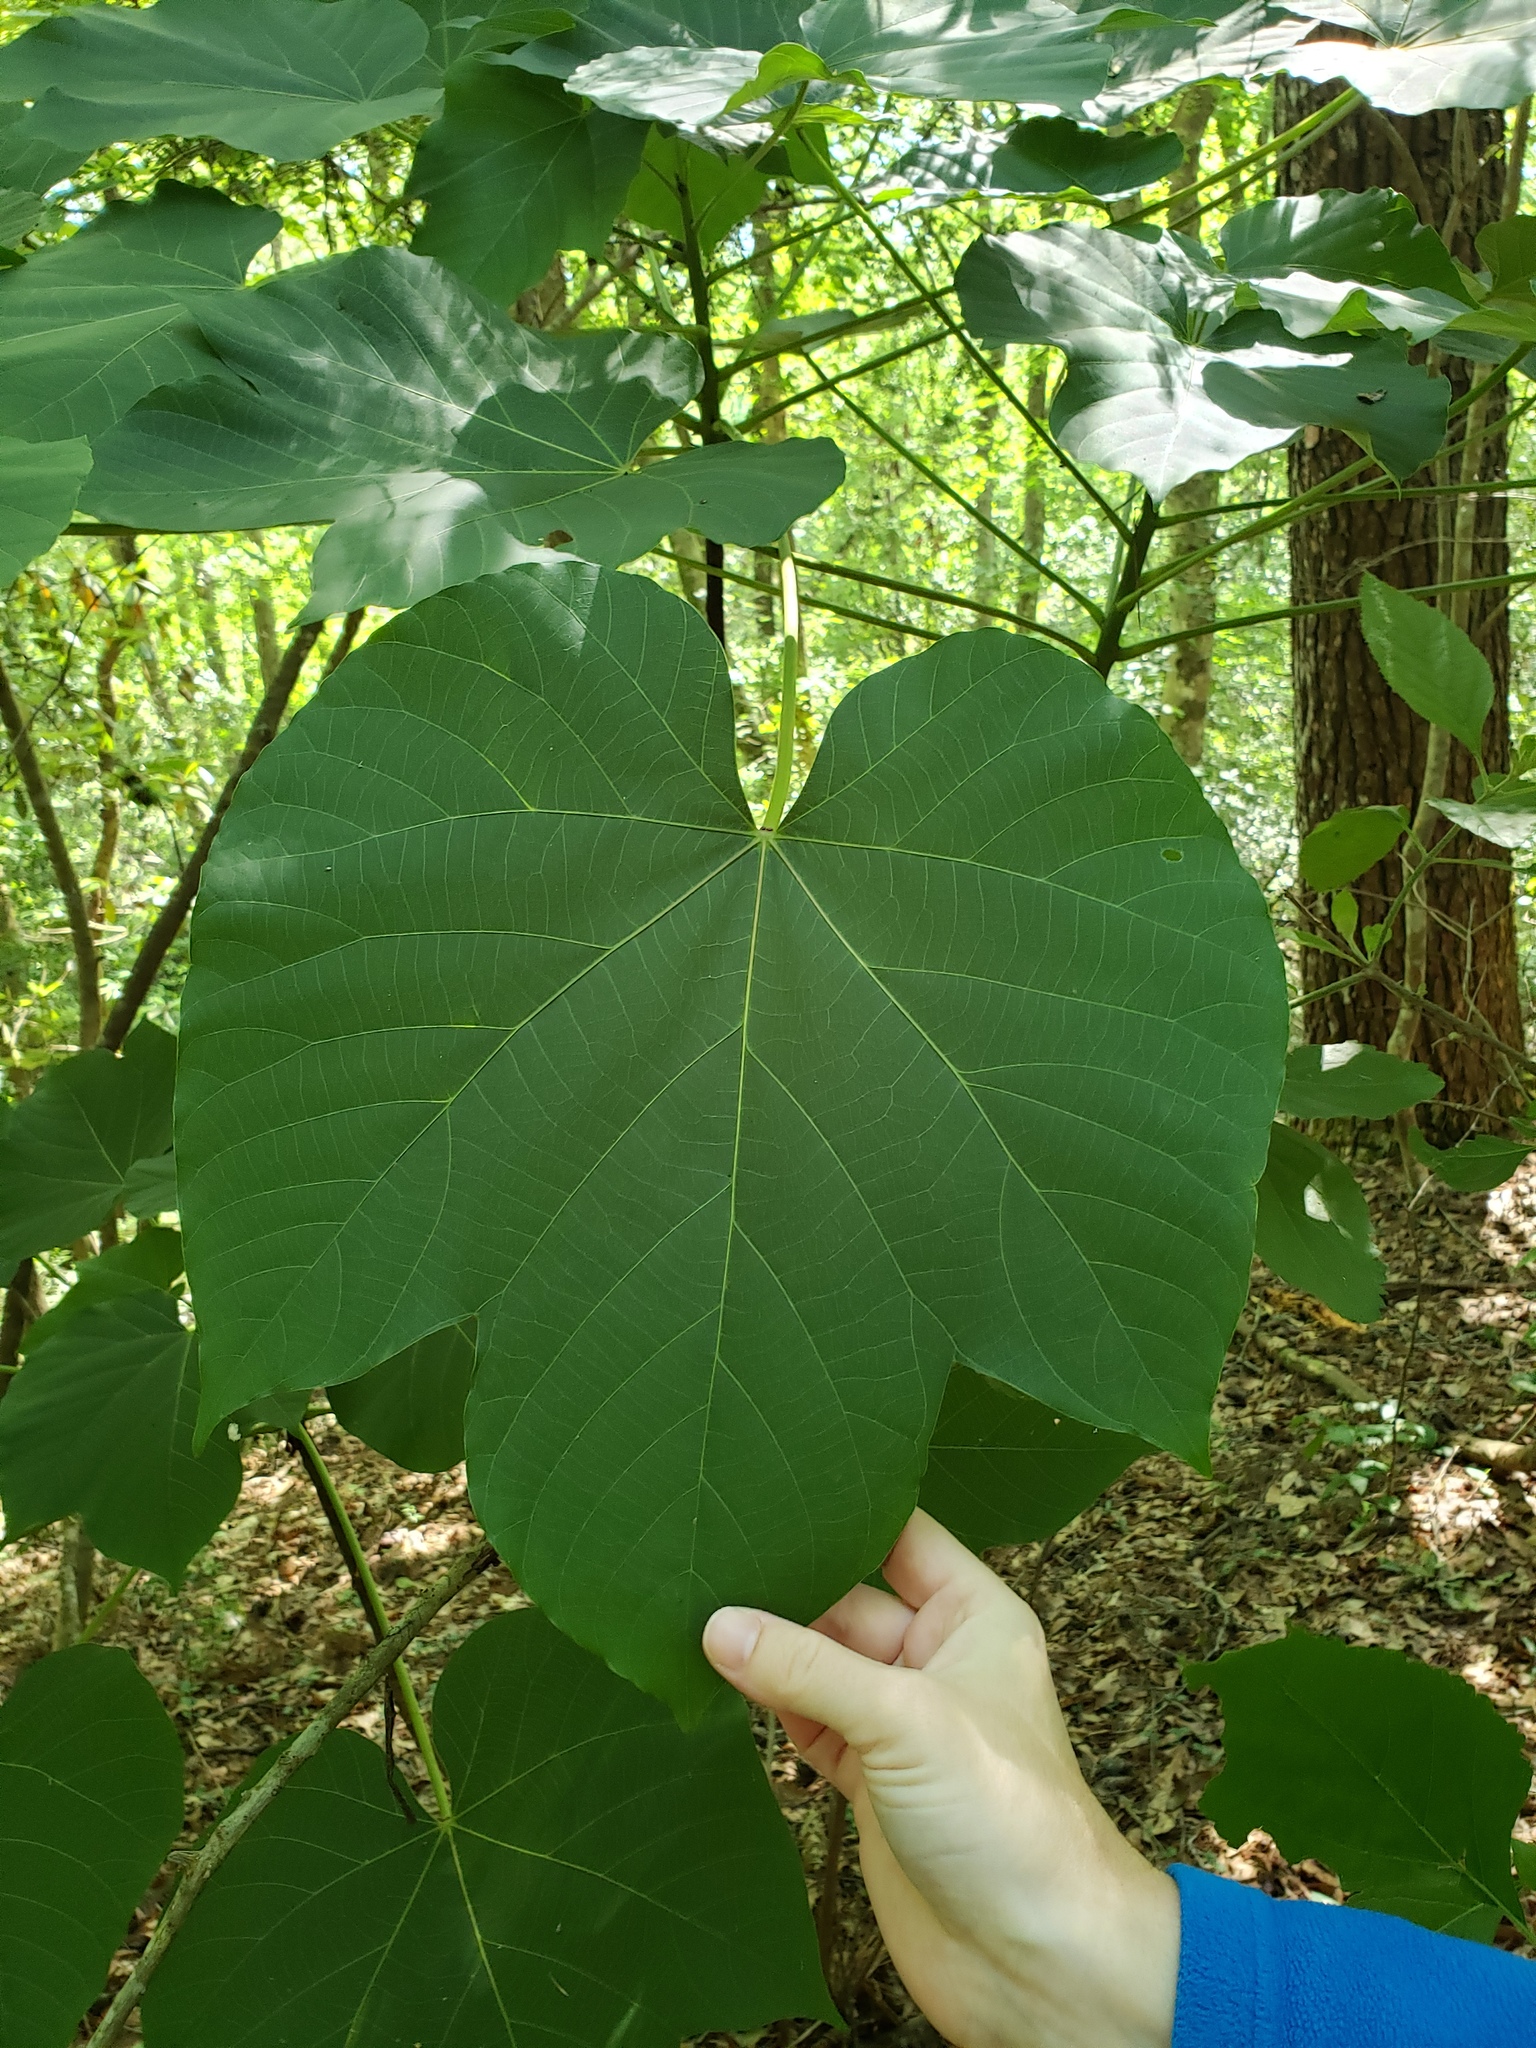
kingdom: Plantae
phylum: Tracheophyta
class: Magnoliopsida
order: Malpighiales
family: Euphorbiaceae
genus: Vernicia
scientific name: Vernicia fordii
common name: Tungoil tree
